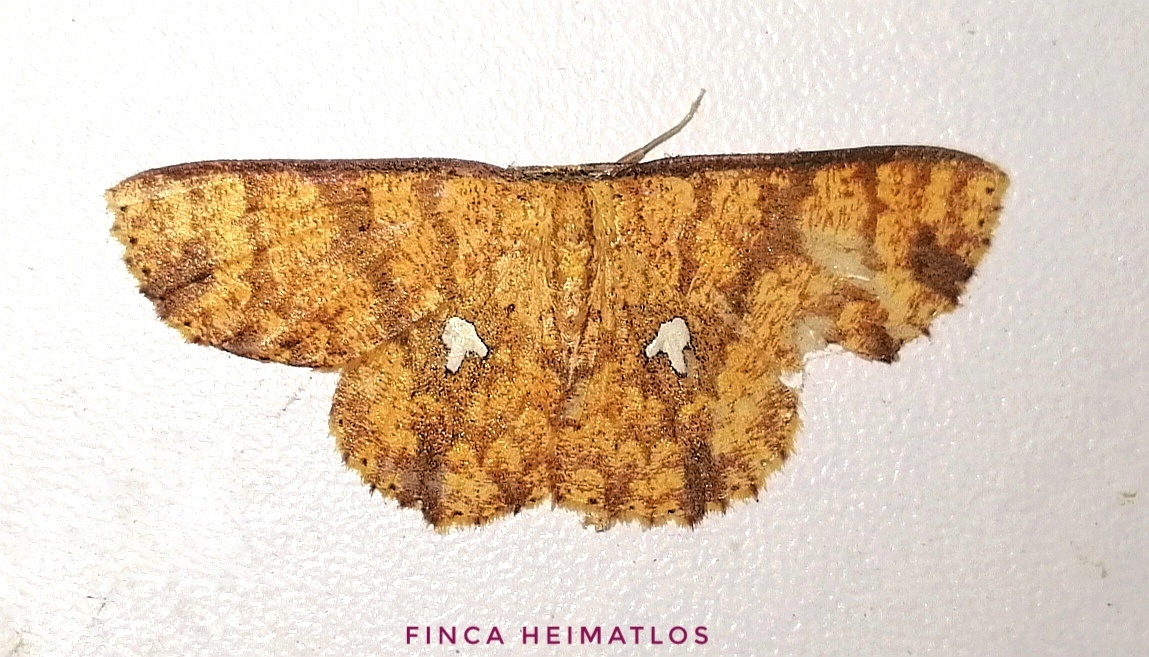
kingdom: Animalia
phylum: Arthropoda
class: Insecta
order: Lepidoptera
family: Geometridae
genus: Cyclophora
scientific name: Cyclophora nodigera
